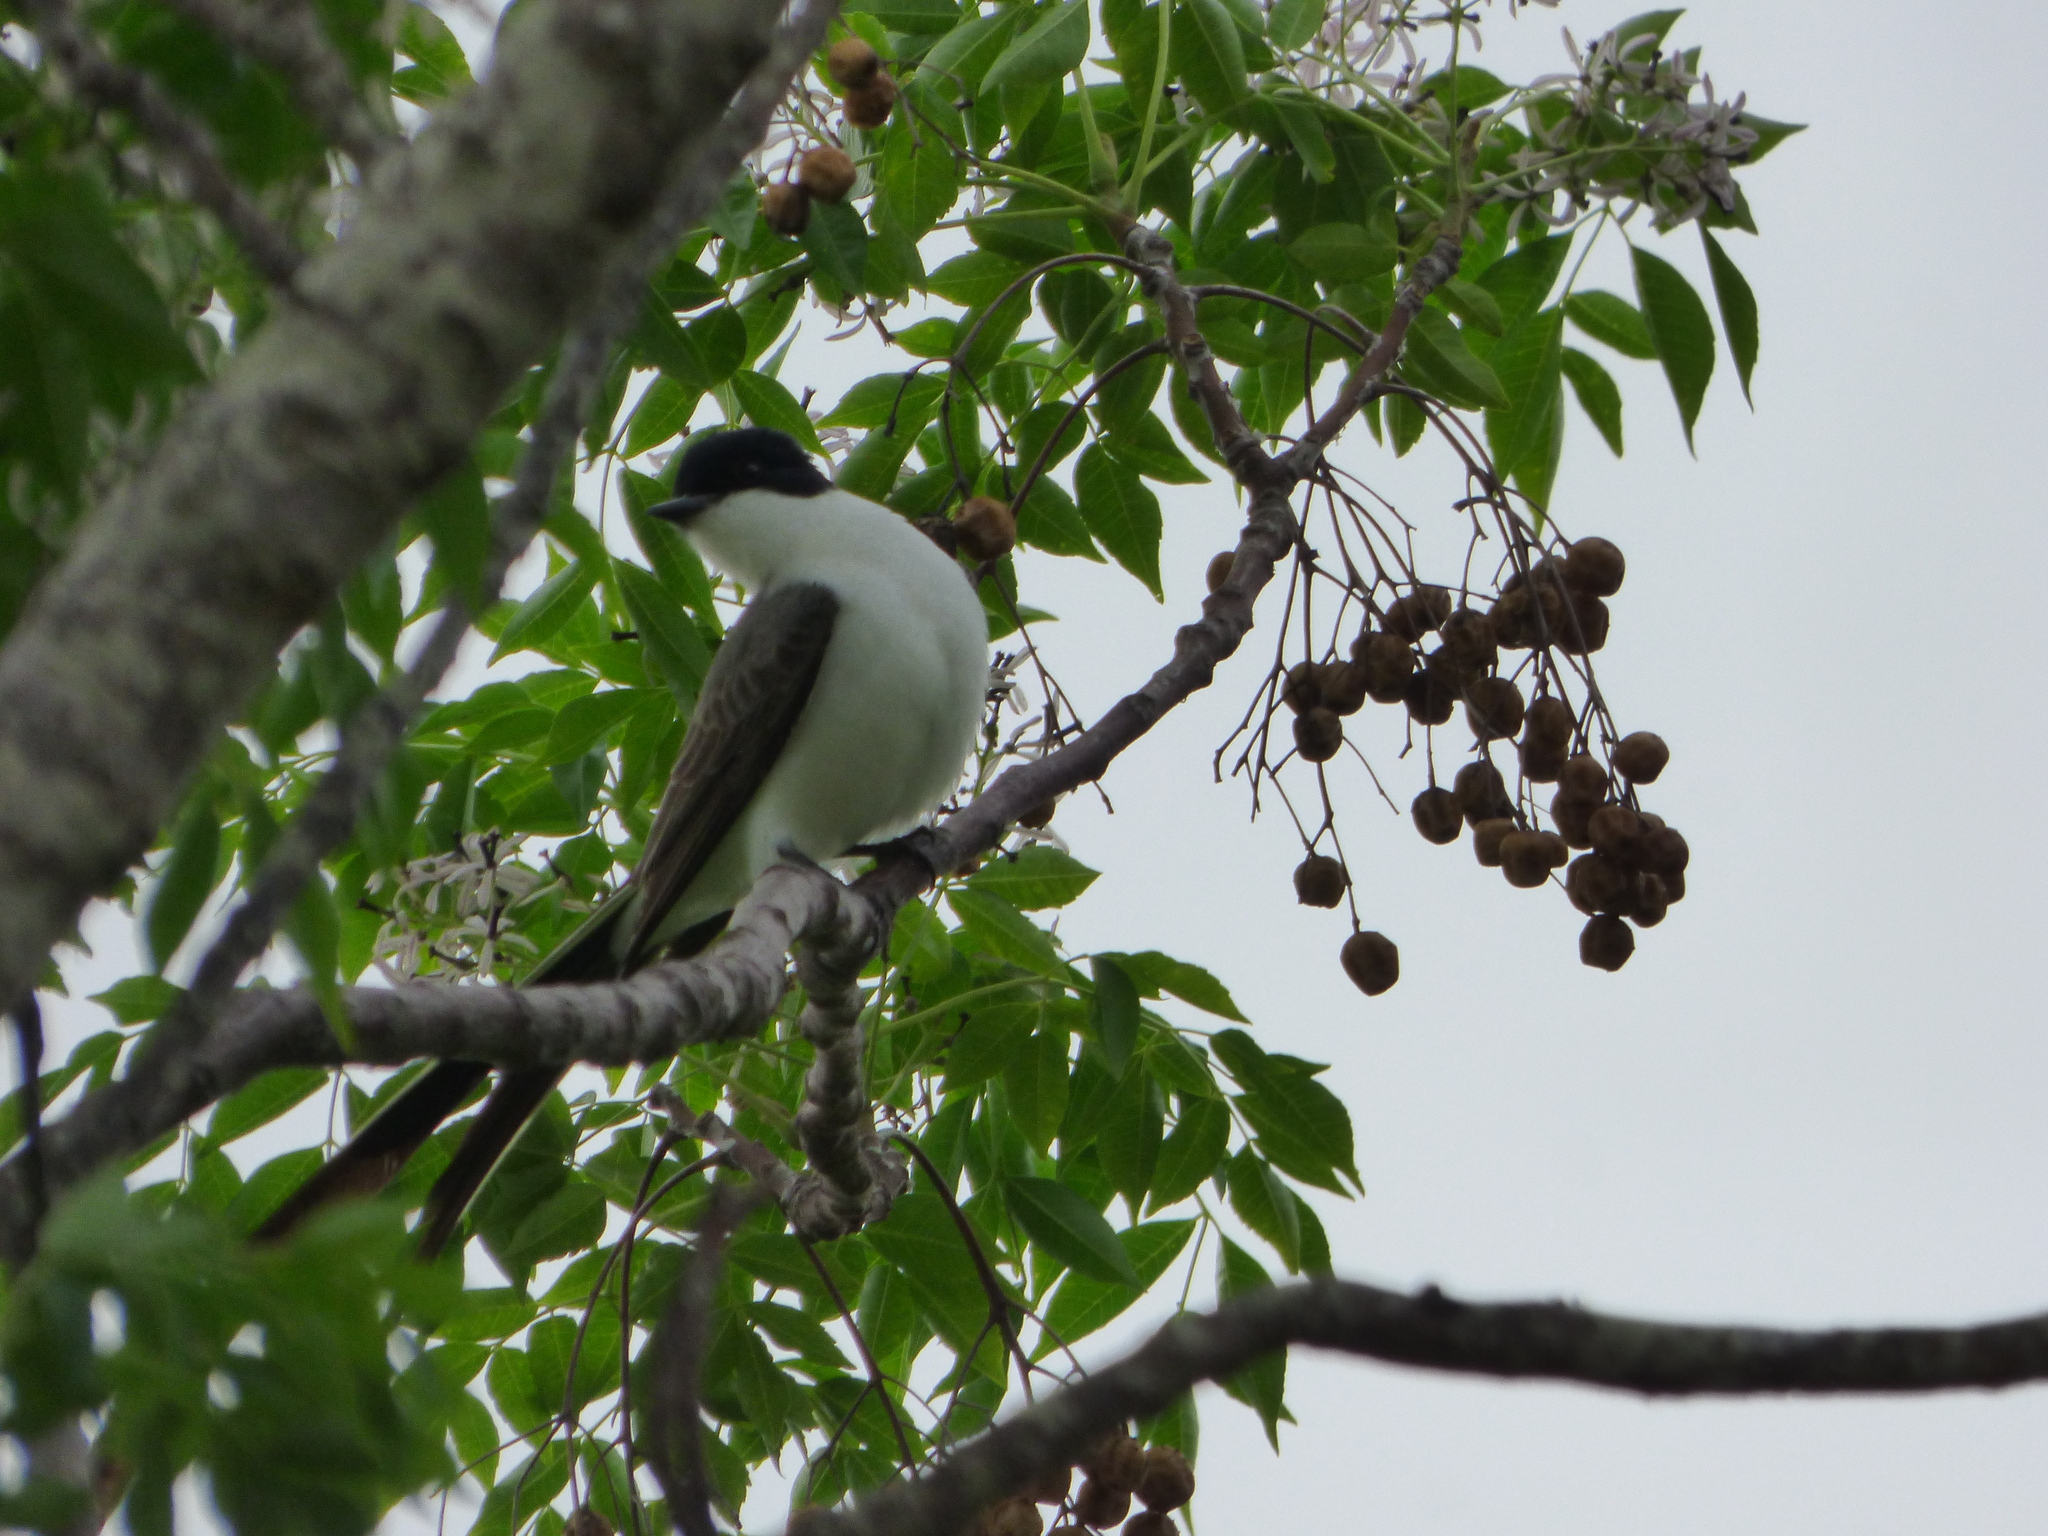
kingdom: Animalia
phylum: Chordata
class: Aves
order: Passeriformes
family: Tyrannidae
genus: Tyrannus
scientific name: Tyrannus savana
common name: Fork-tailed flycatcher
